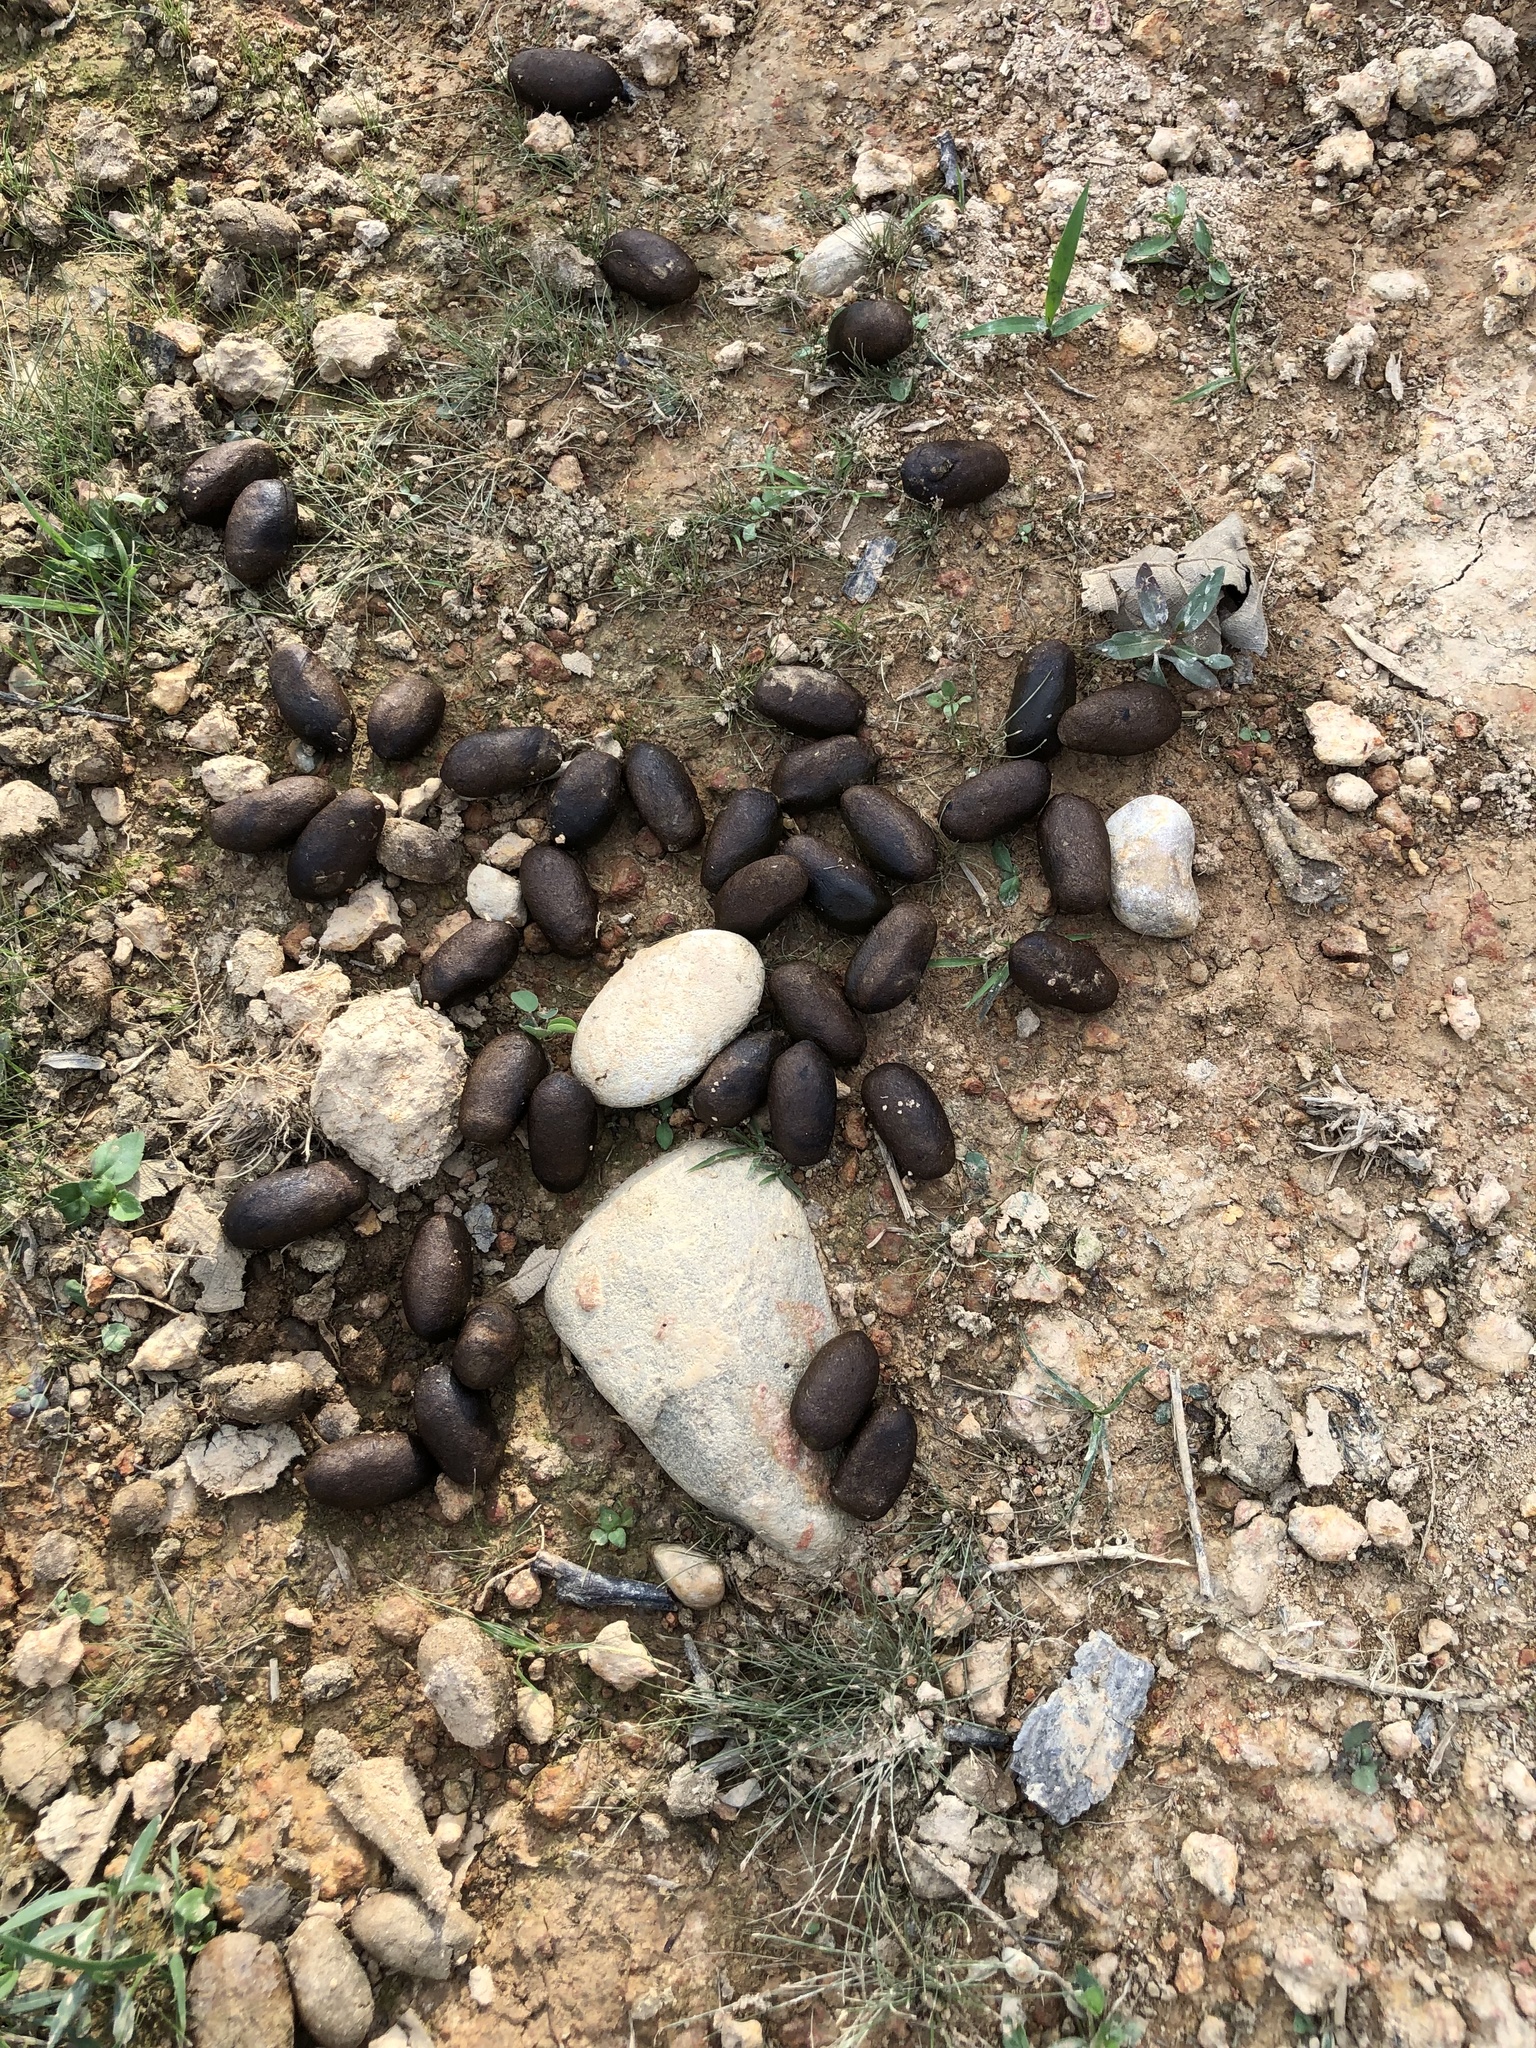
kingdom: Animalia
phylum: Chordata
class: Mammalia
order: Rodentia
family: Caviidae
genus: Hydrochoerus
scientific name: Hydrochoerus hydrochaeris
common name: Capybara
